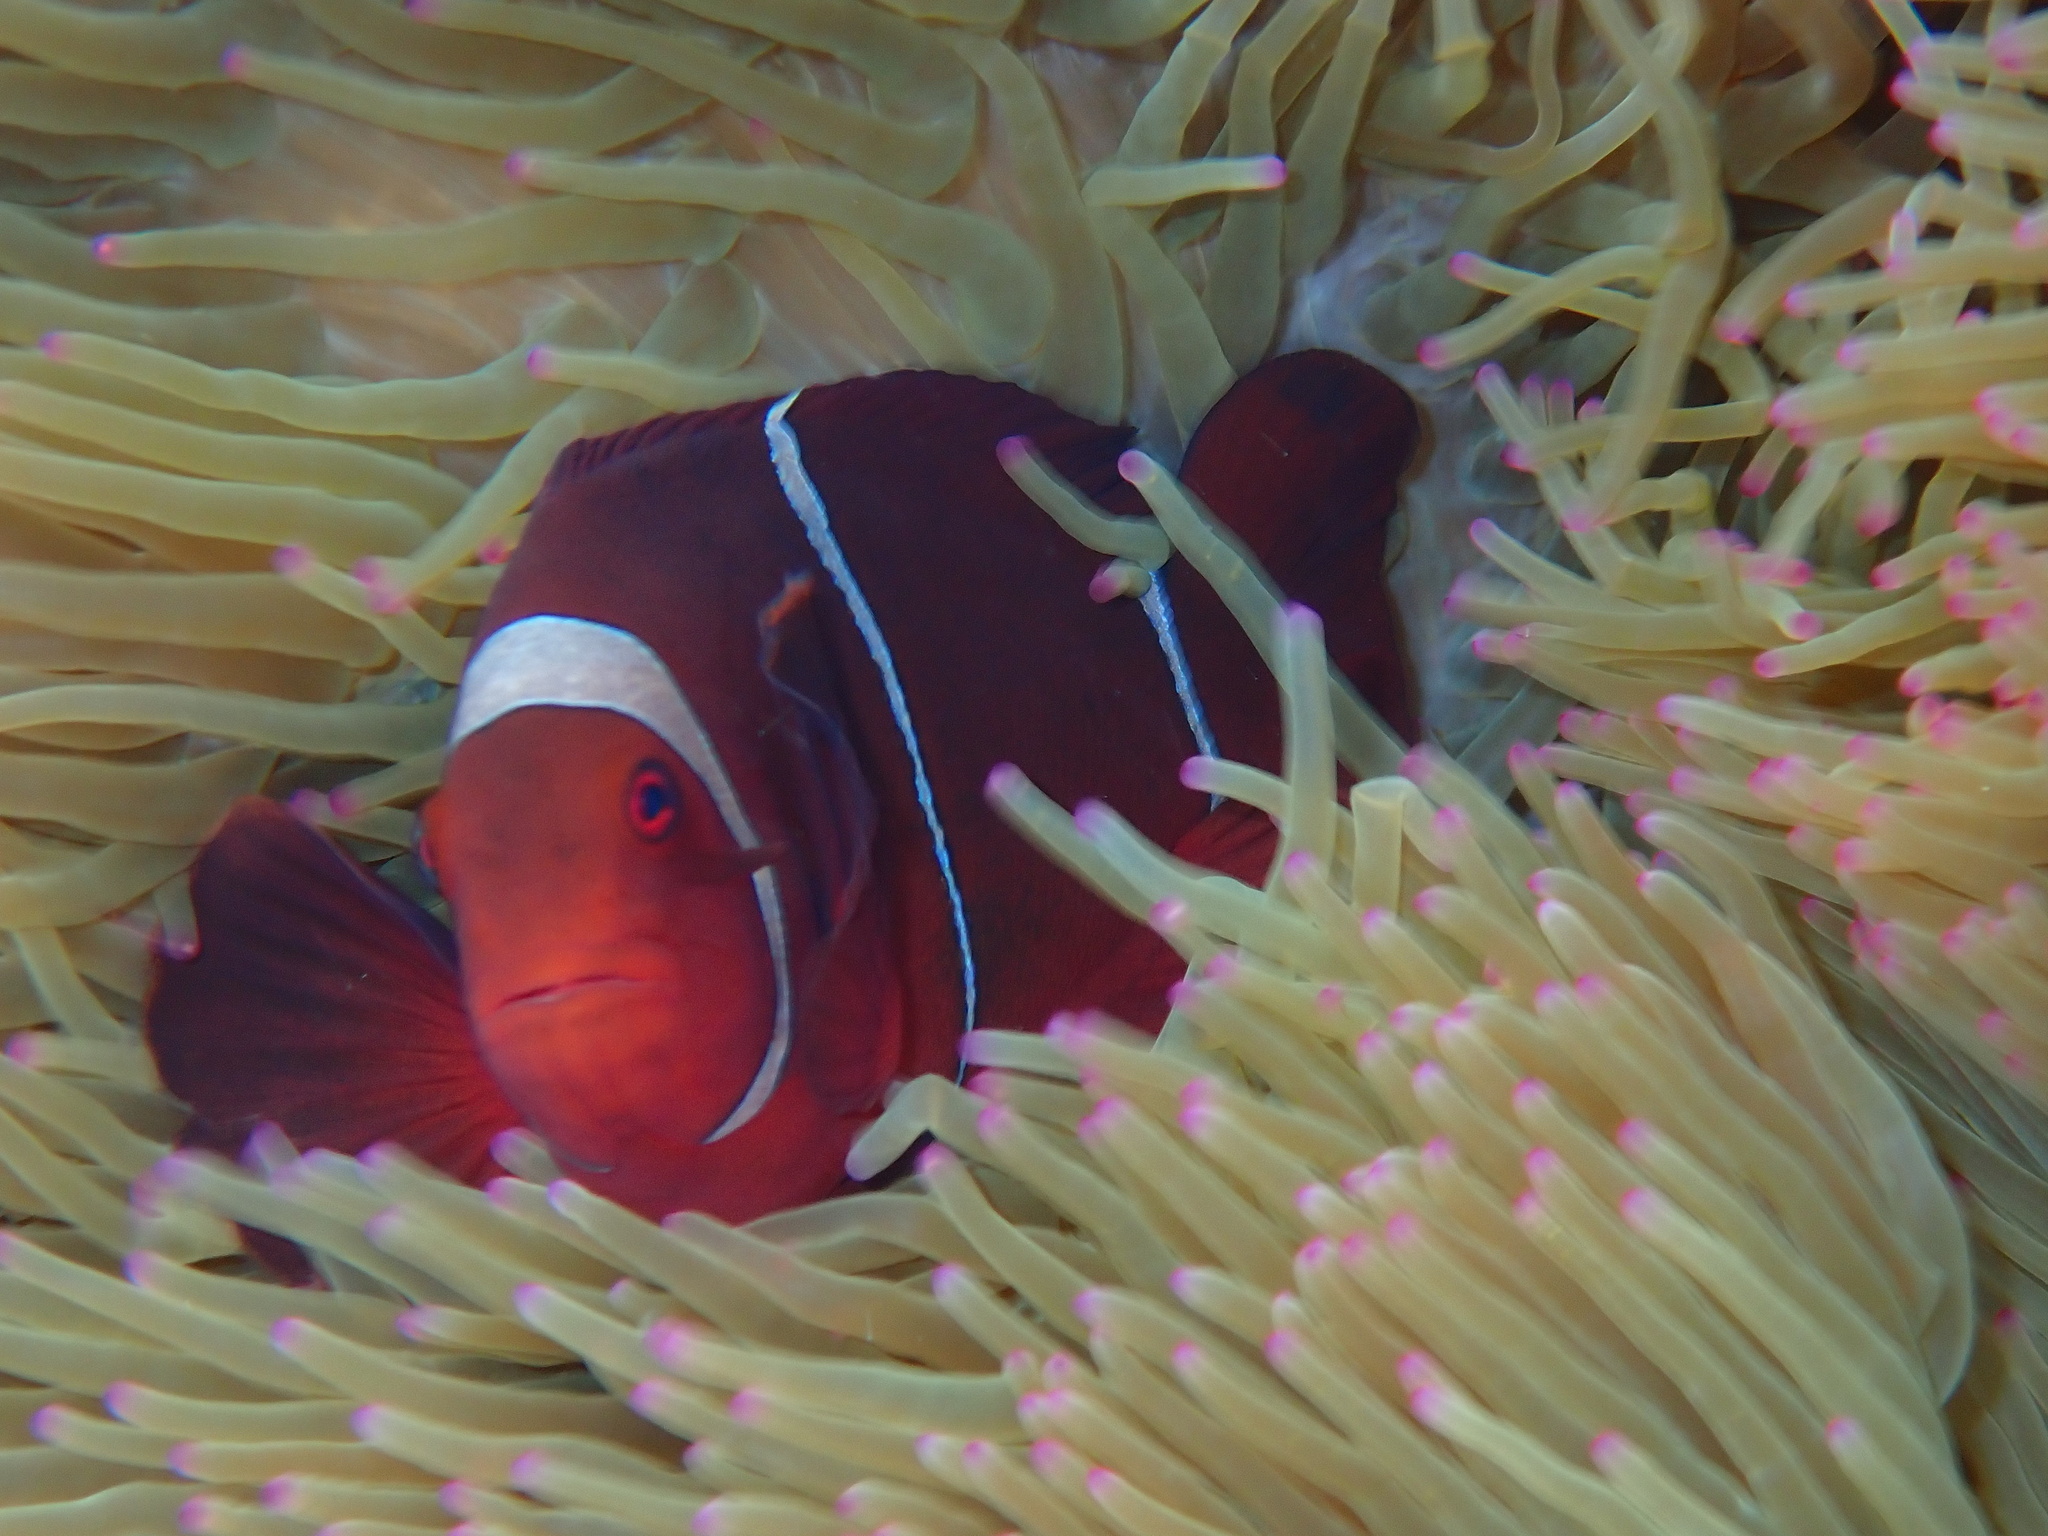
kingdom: Animalia
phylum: Chordata
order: Perciformes
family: Pomacentridae
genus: Premnas
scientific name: Premnas biaculeatus
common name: Spinecheek anemonefish
